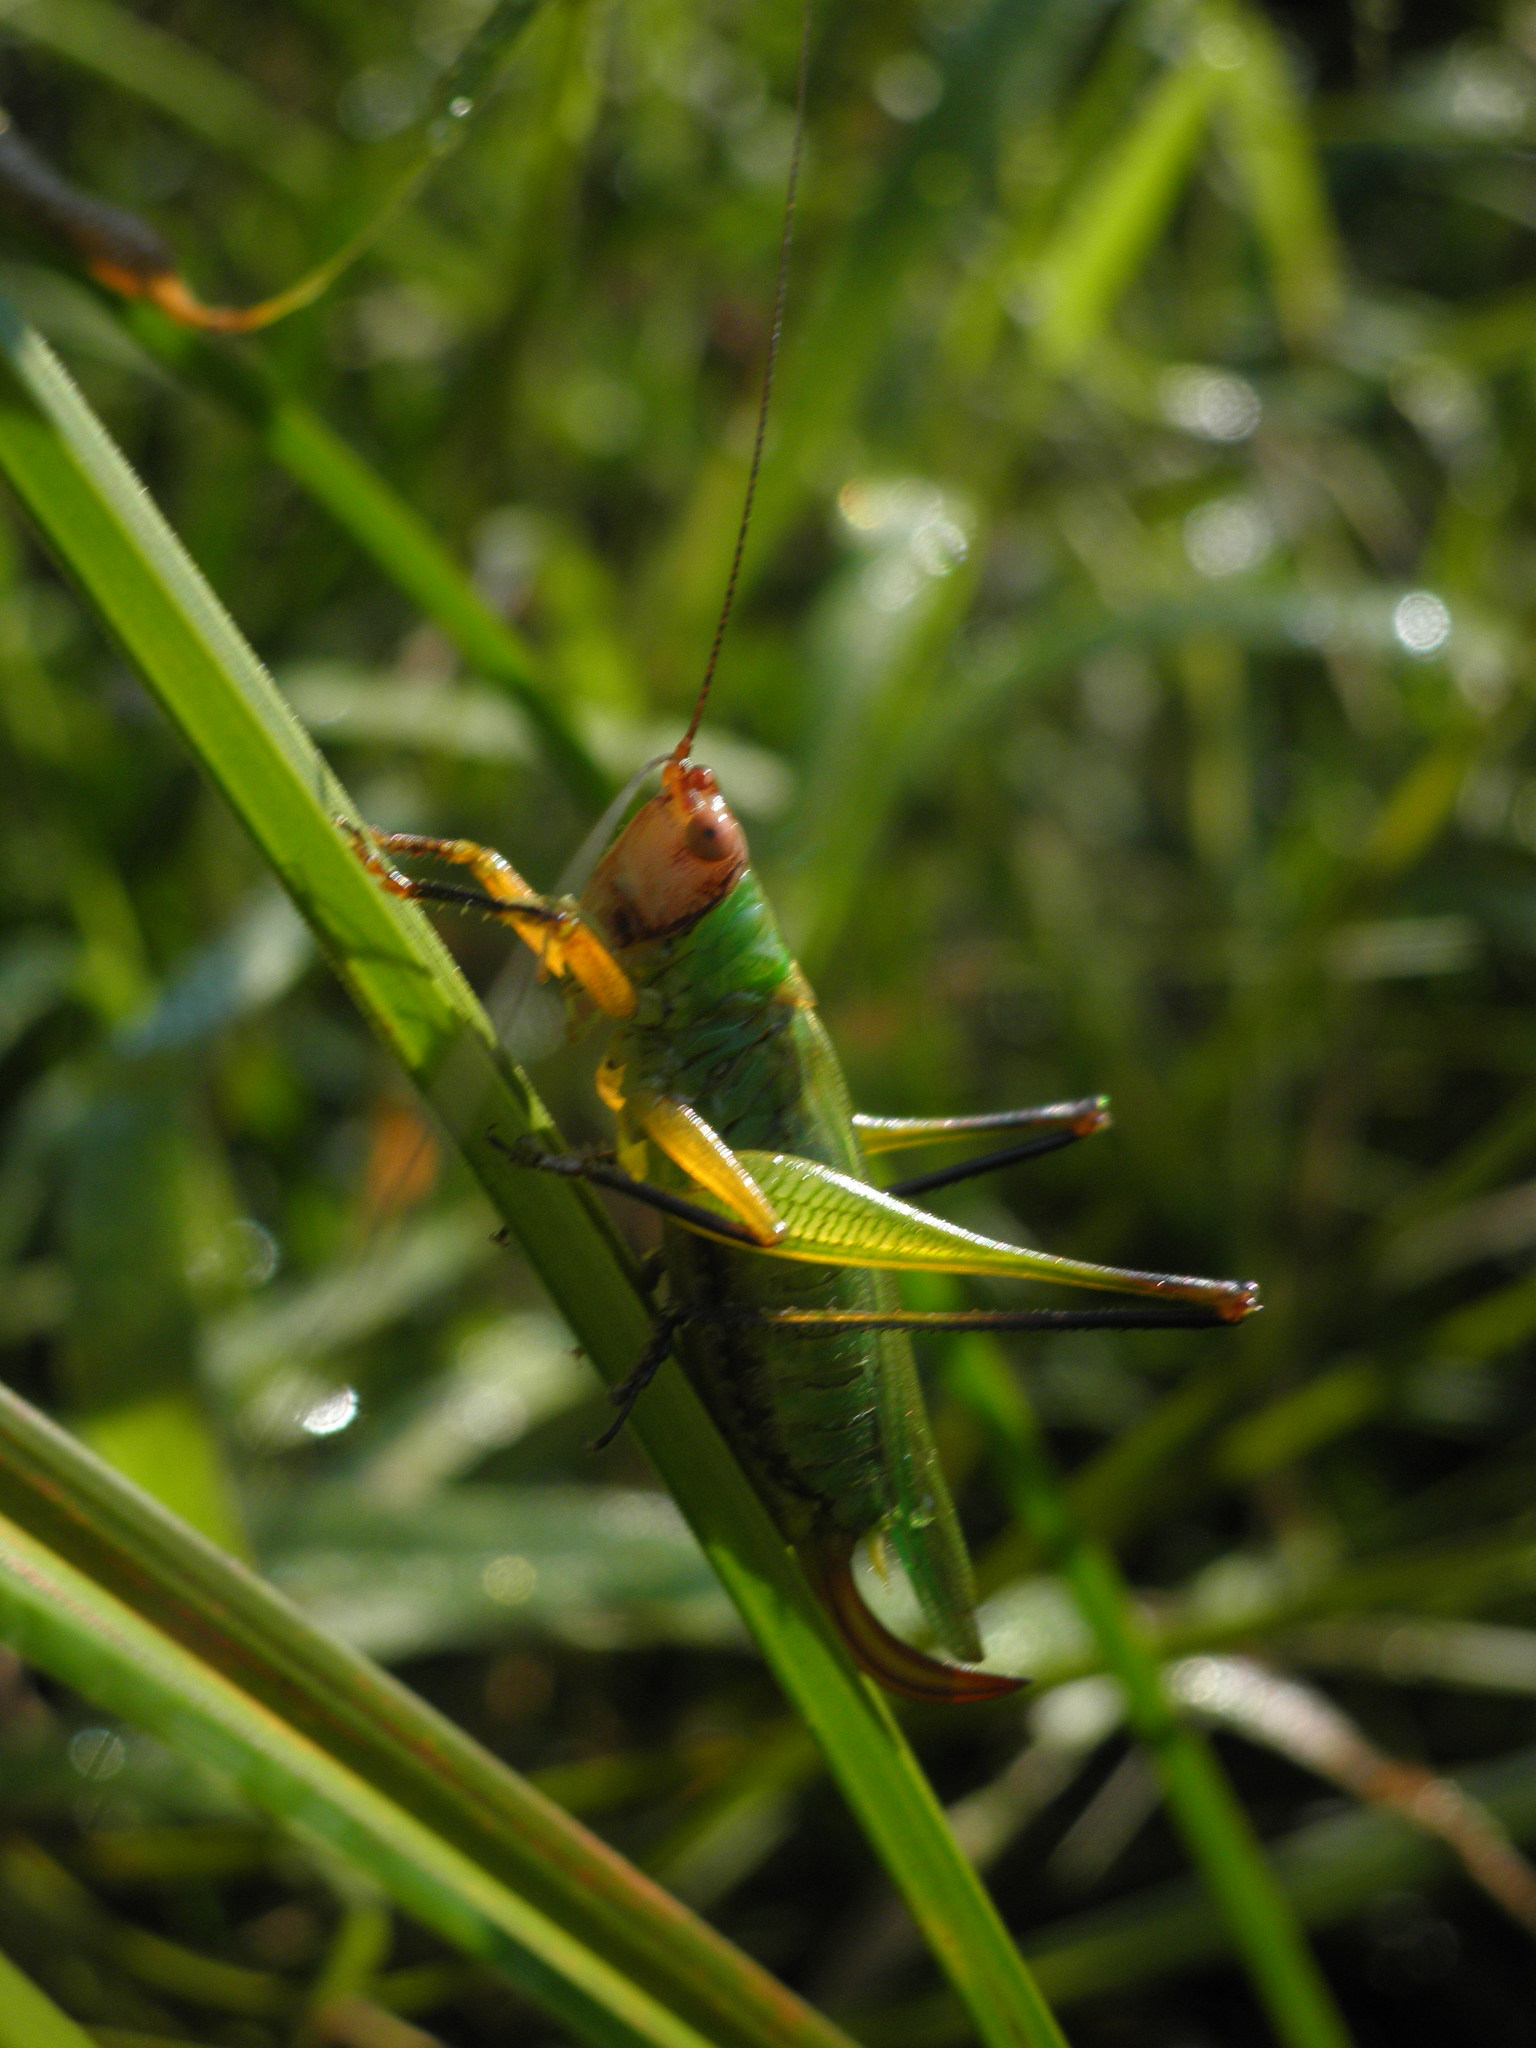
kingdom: Animalia
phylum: Arthropoda
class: Insecta
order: Orthoptera
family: Tettigoniidae
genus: Orchelimum
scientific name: Orchelimum nigripes
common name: Black-legged meadow katydid
